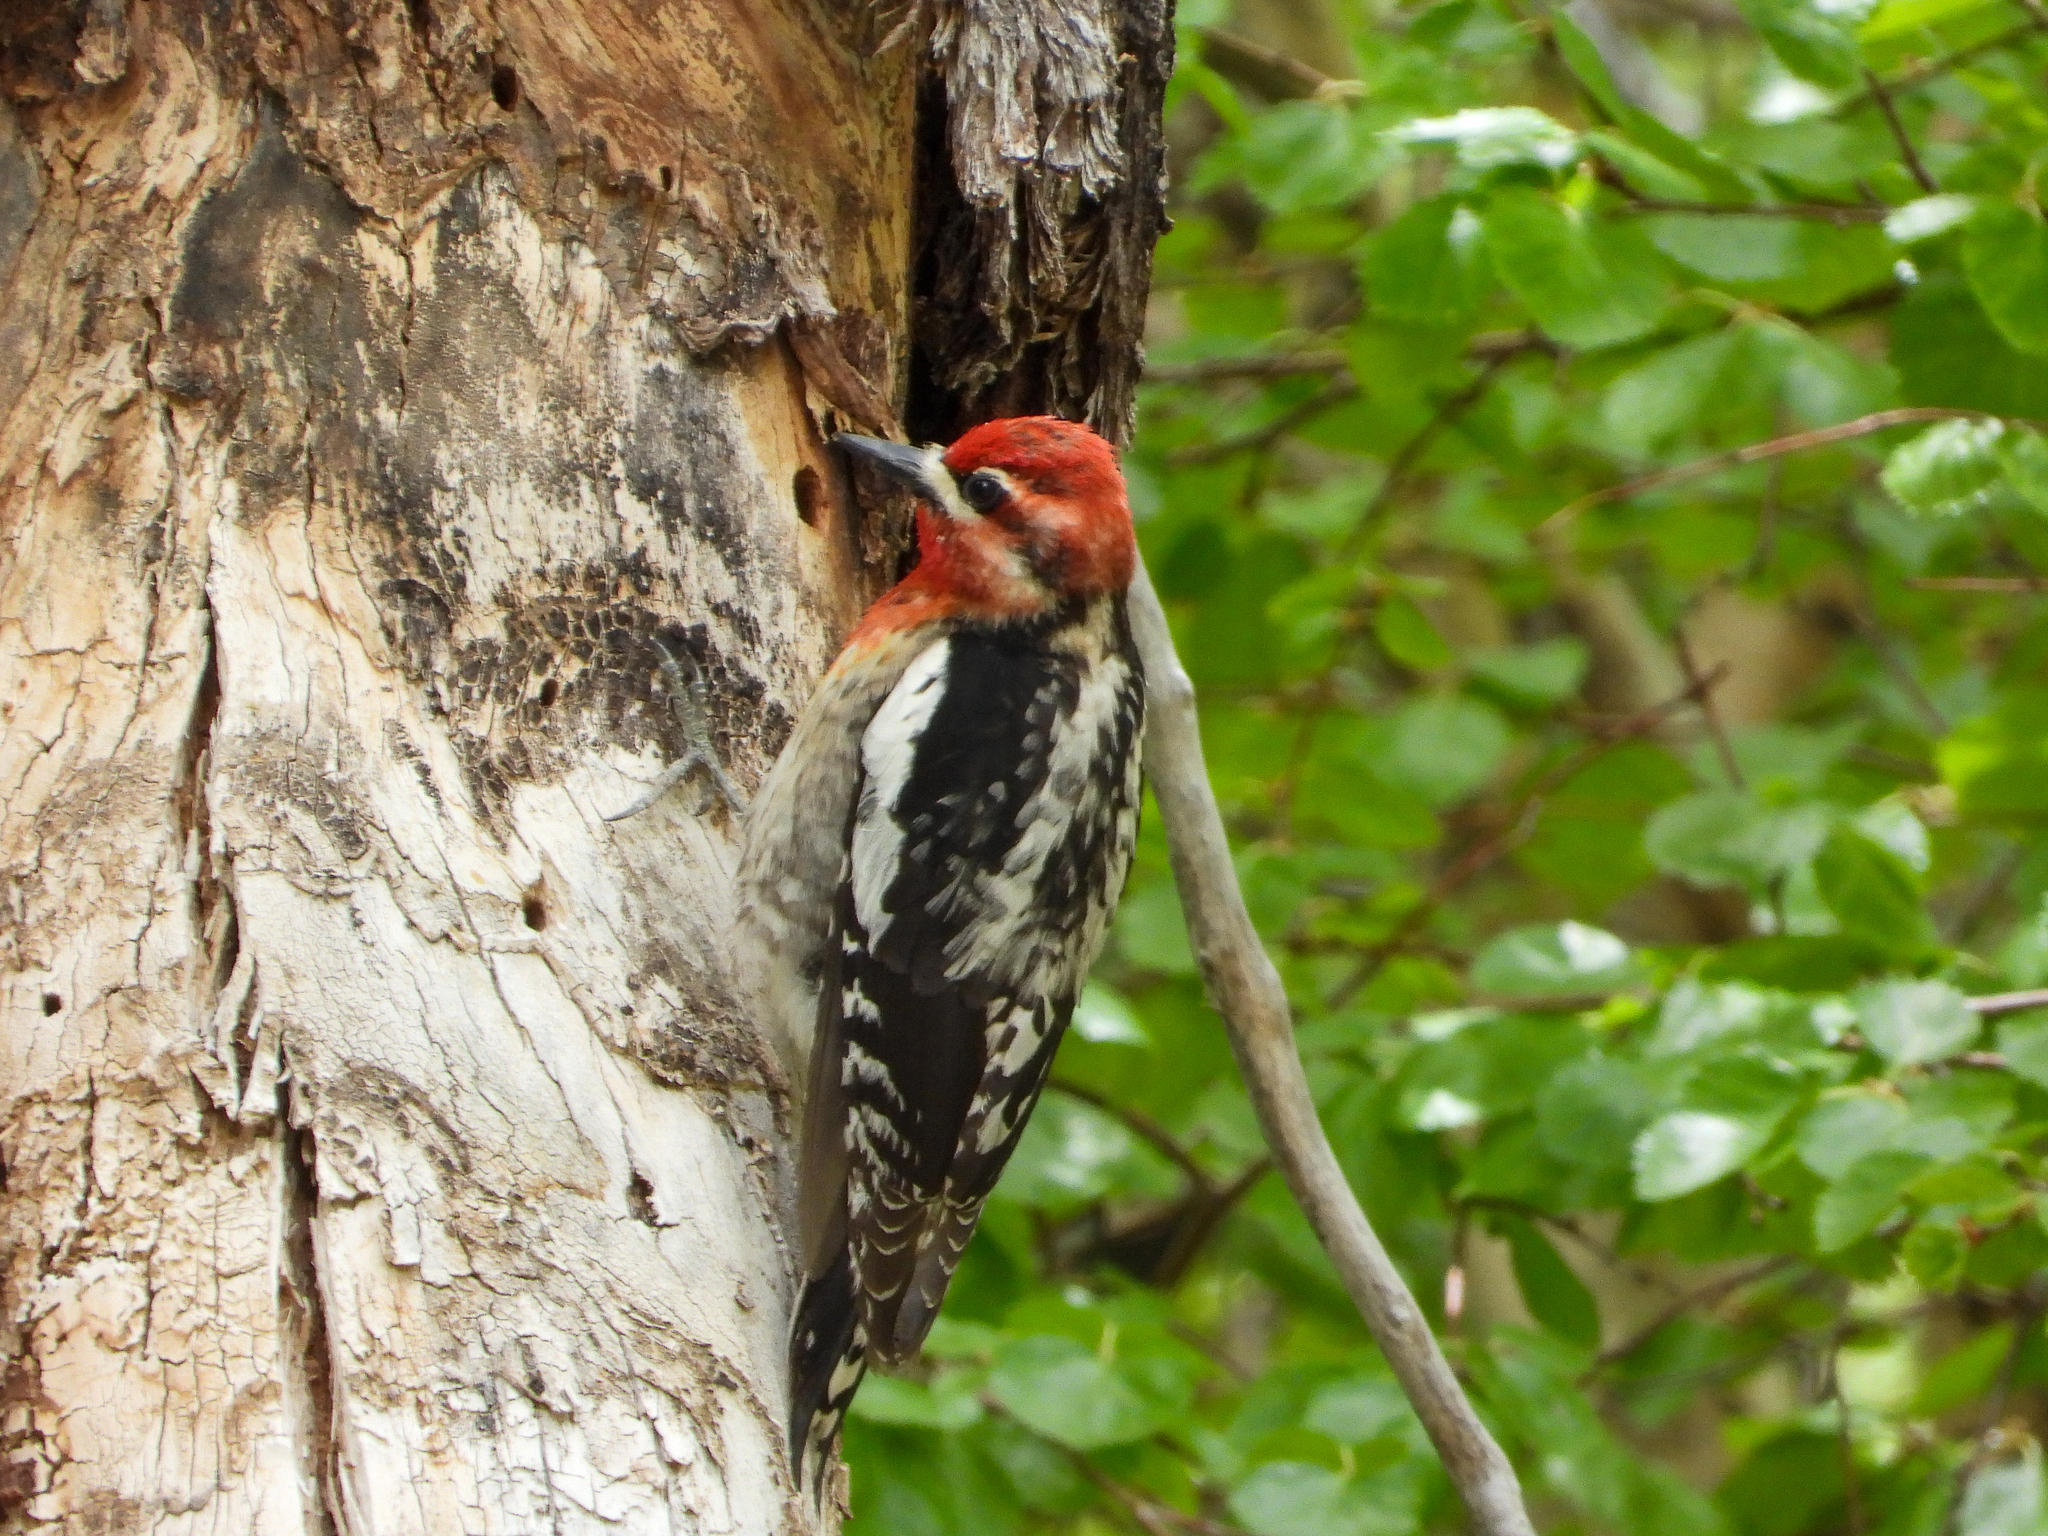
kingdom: Animalia
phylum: Chordata
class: Aves
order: Piciformes
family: Picidae
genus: Sphyrapicus
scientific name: Sphyrapicus ruber
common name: Red-breasted sapsucker
